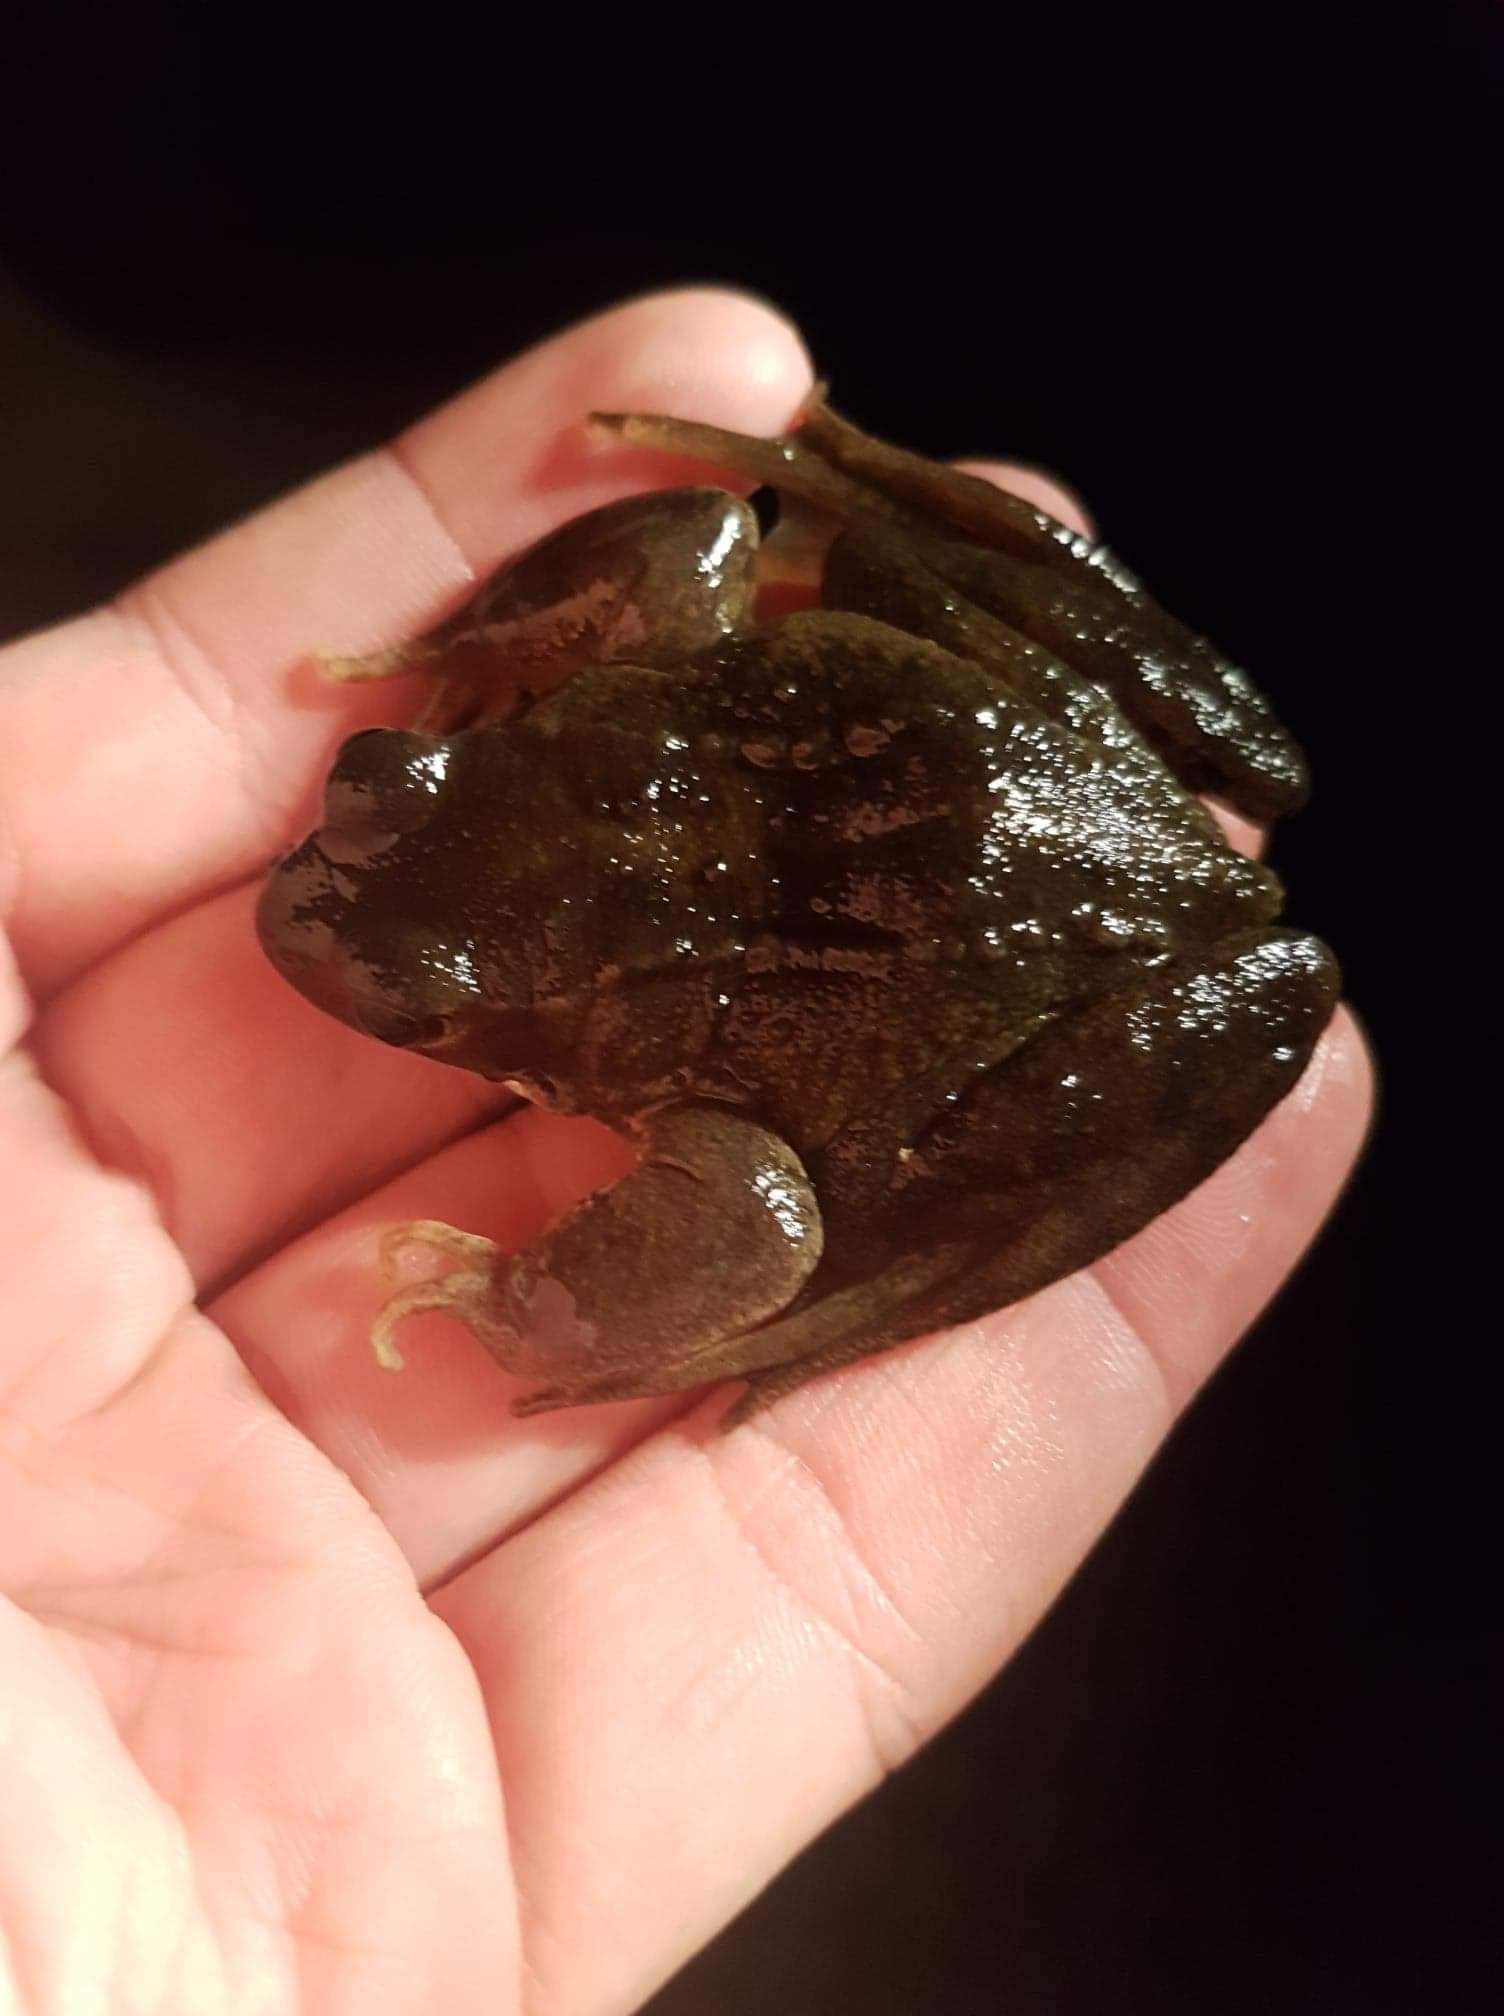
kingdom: Animalia
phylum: Chordata
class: Amphibia
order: Anura
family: Ranidae
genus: Rana
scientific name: Rana temporaria
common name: Common frog
